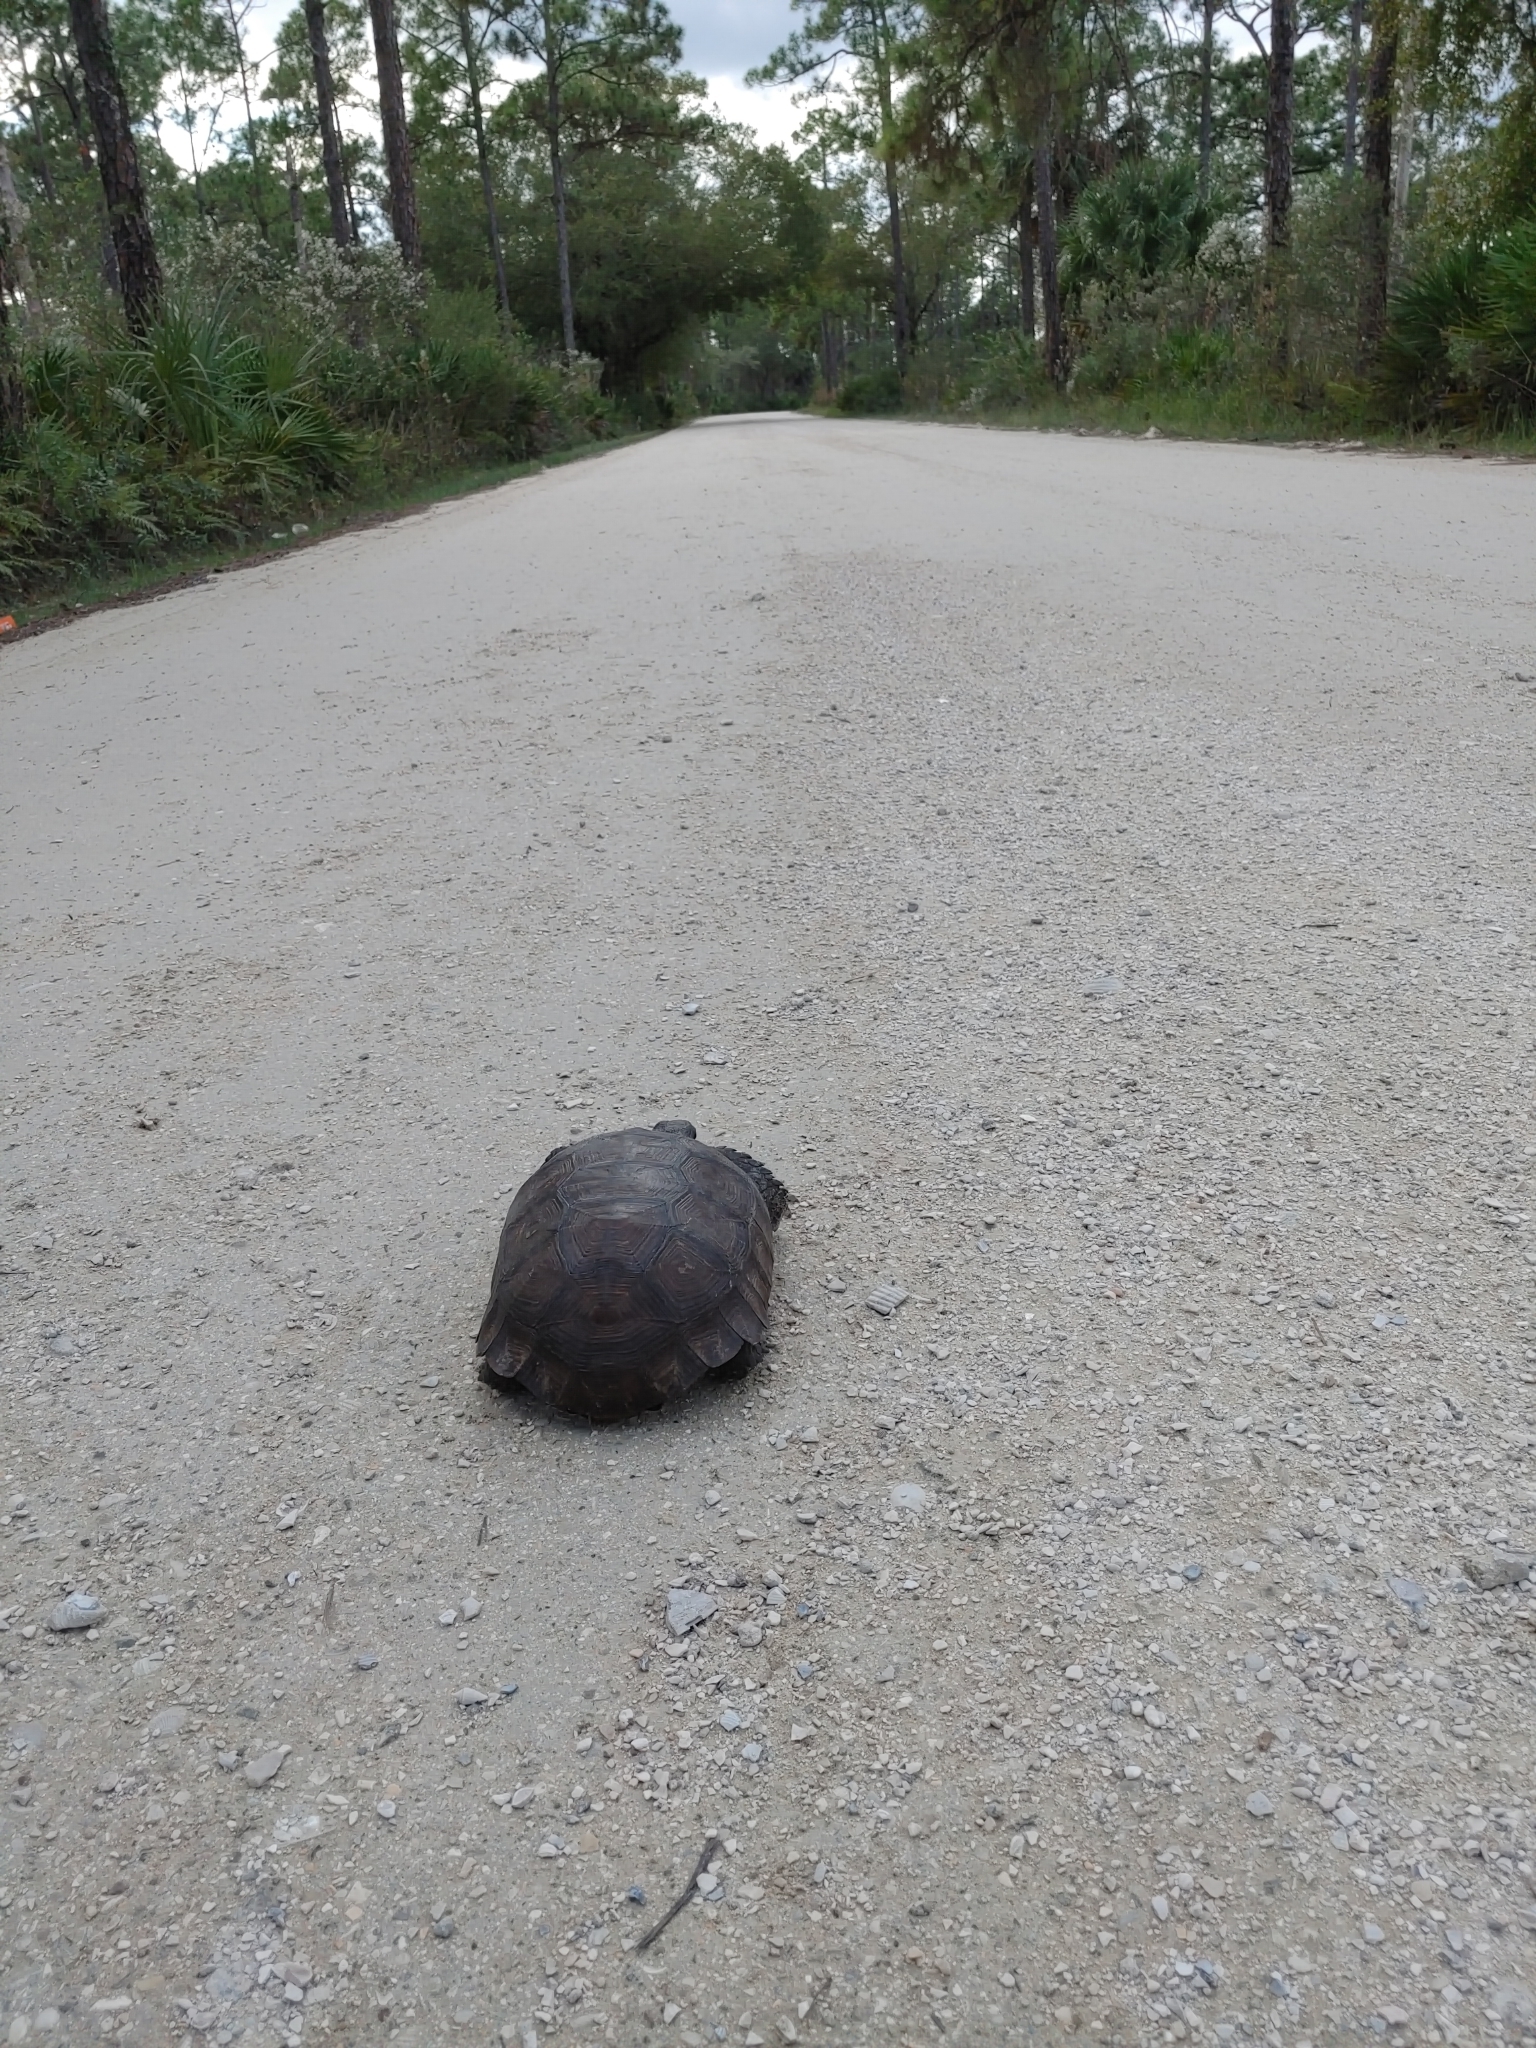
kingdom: Animalia
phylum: Chordata
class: Testudines
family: Testudinidae
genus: Gopherus
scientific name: Gopherus polyphemus
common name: Florida gopher tortoise
